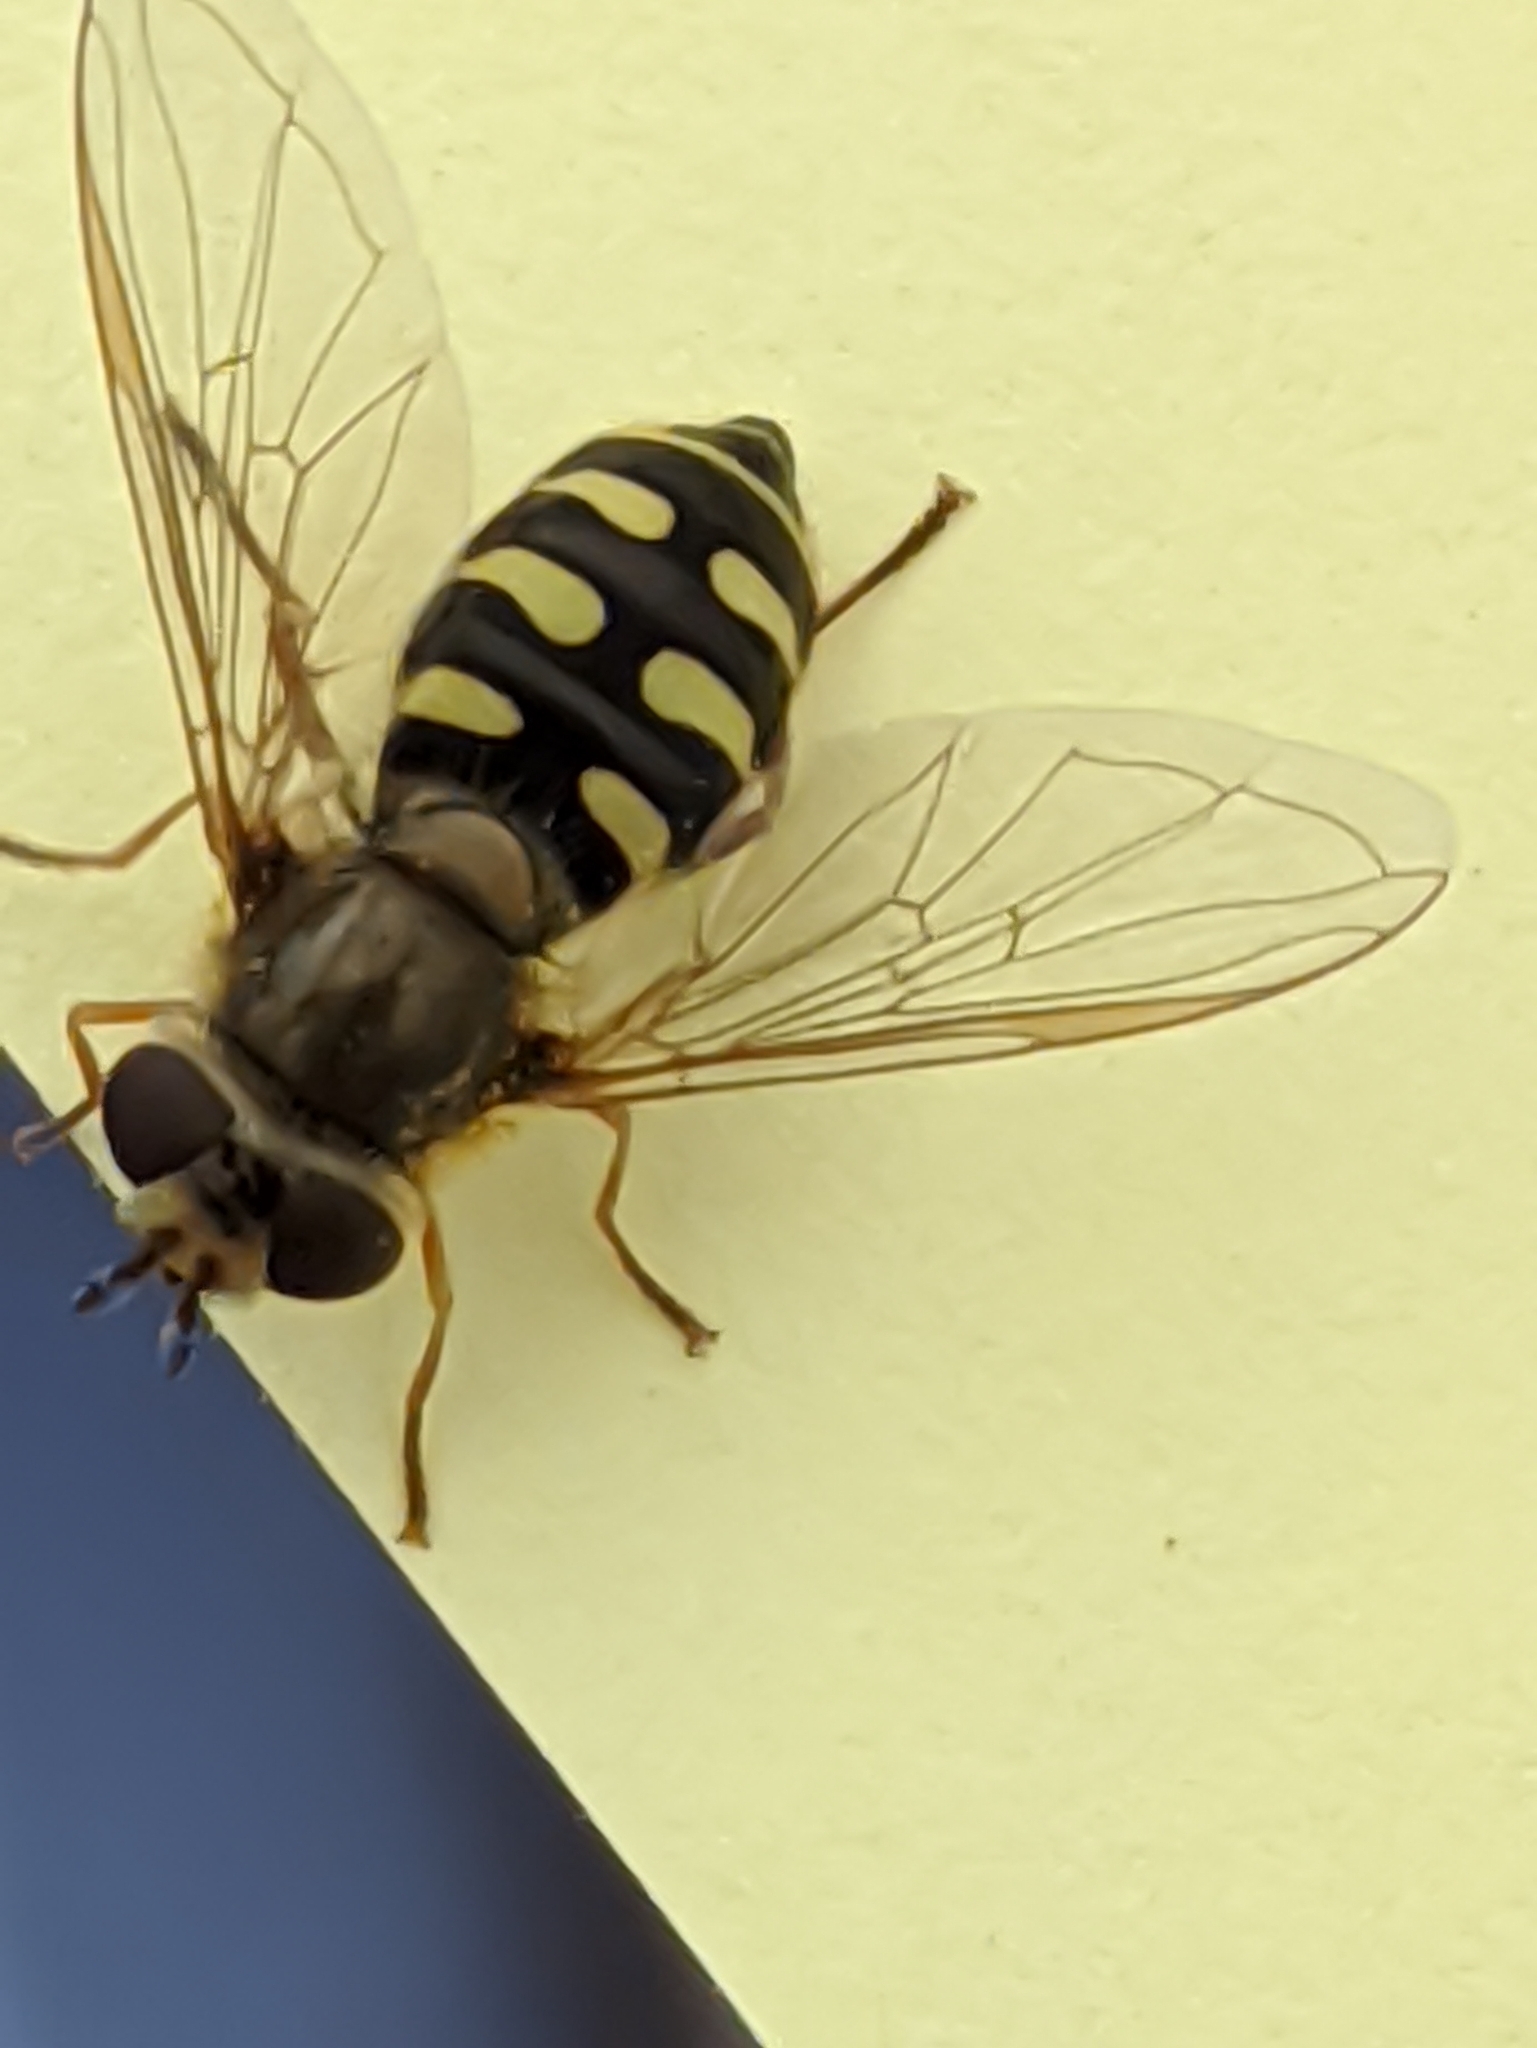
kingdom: Animalia
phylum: Arthropoda
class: Insecta
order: Diptera
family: Syrphidae
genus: Eupeodes
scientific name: Eupeodes corollae
